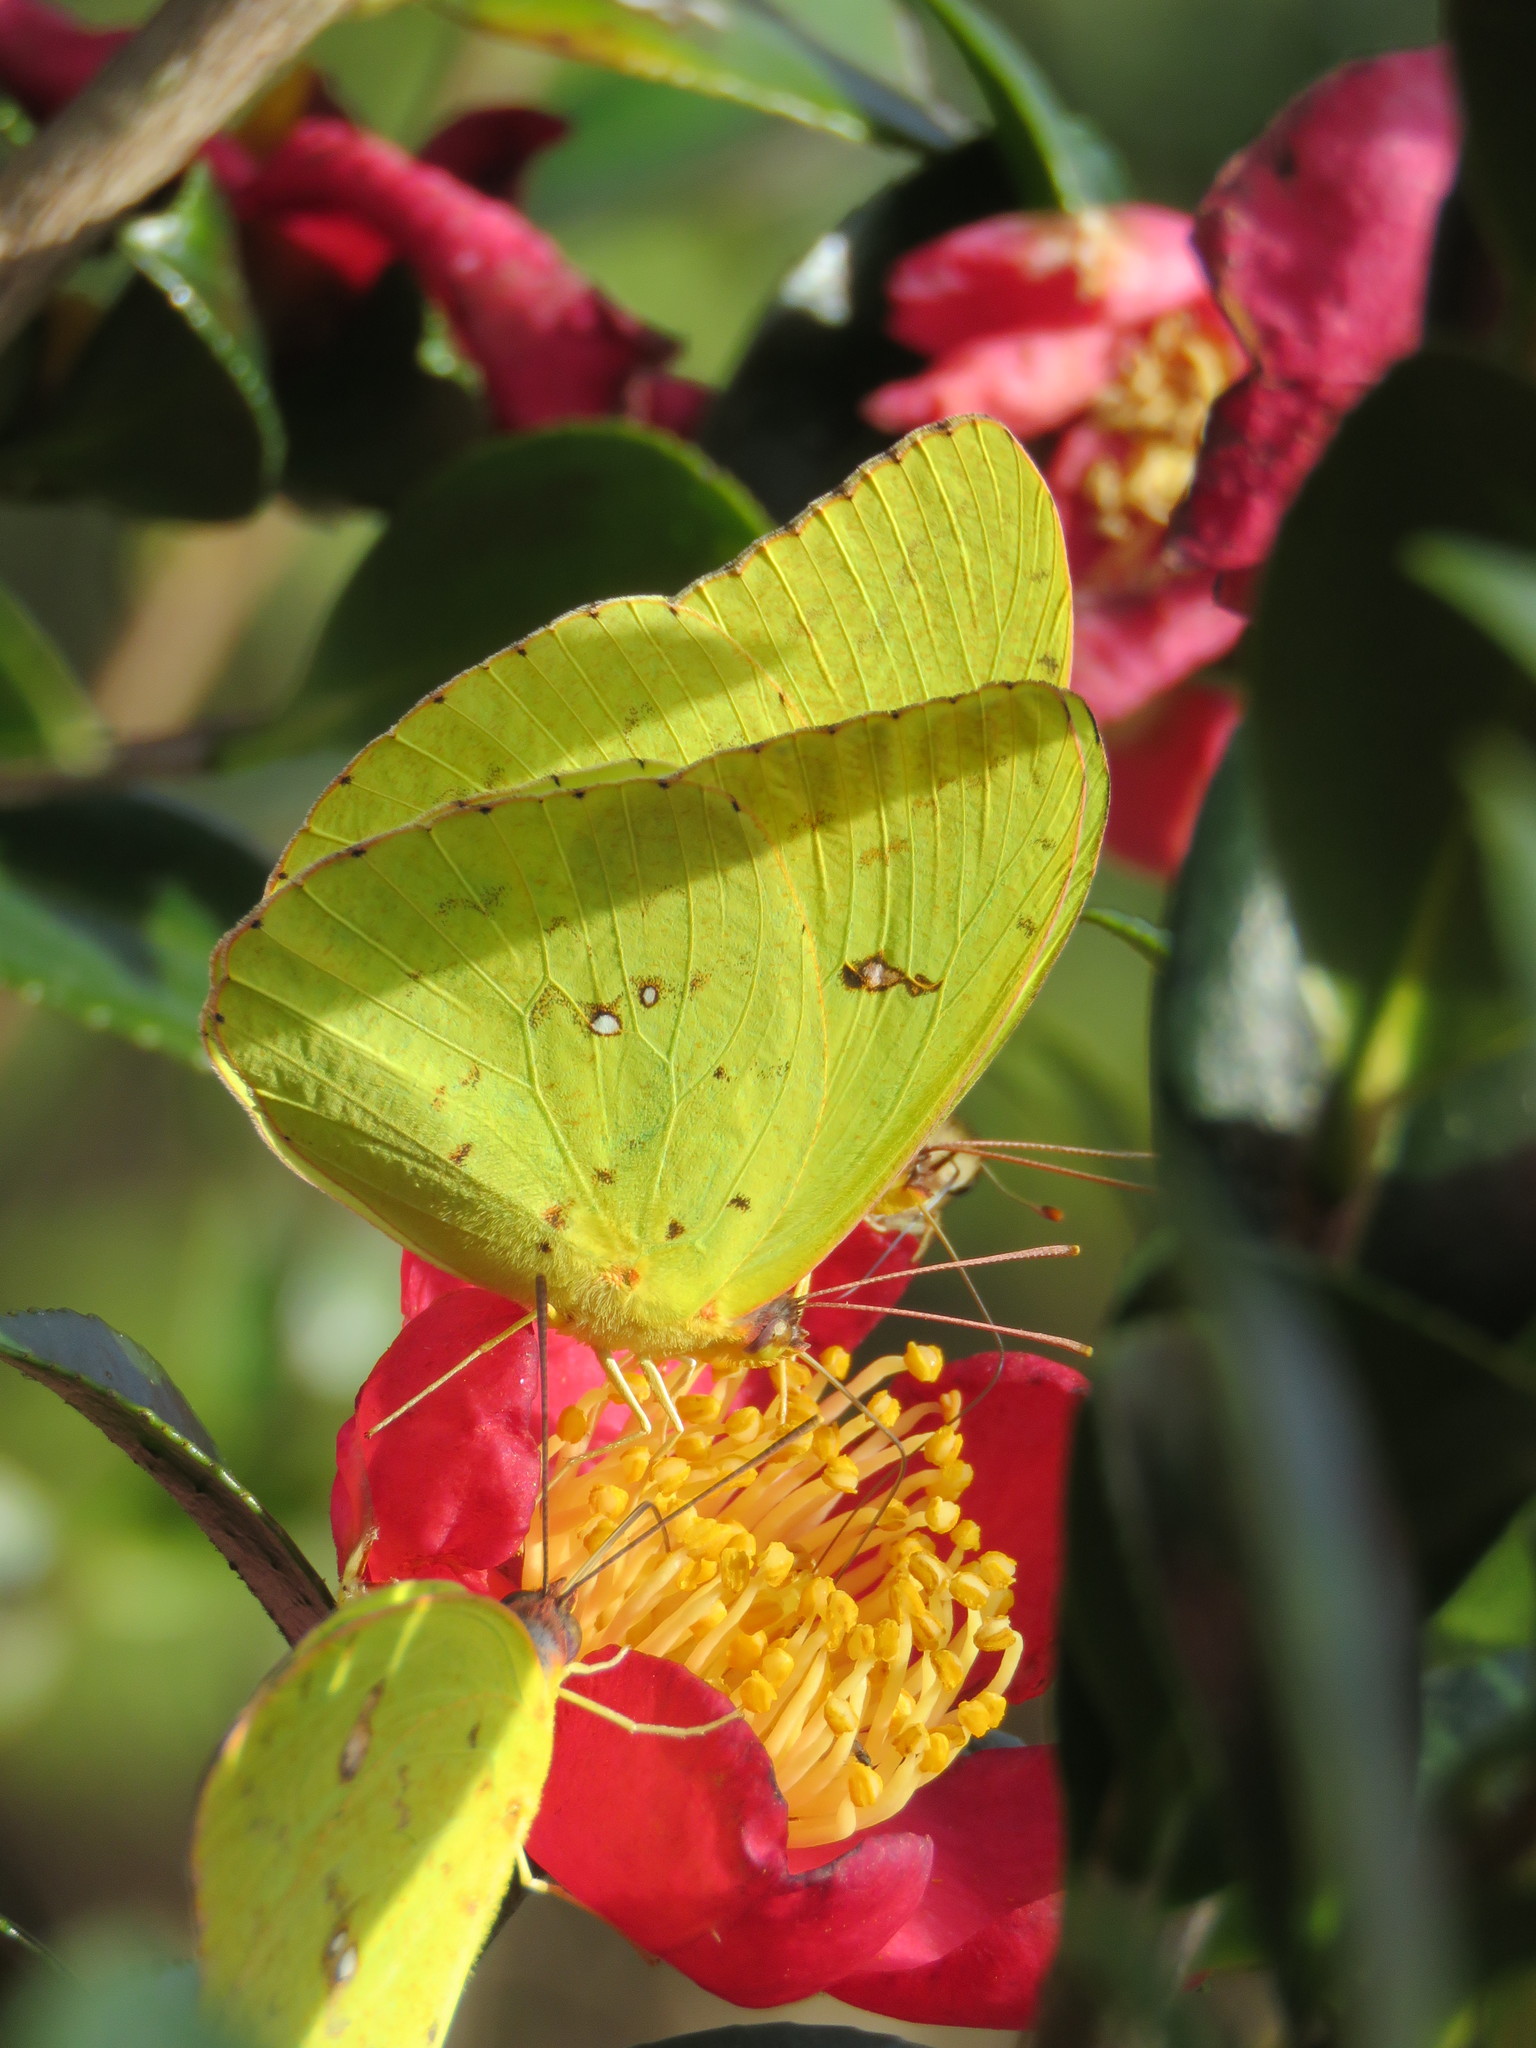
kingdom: Animalia
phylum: Arthropoda
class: Insecta
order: Lepidoptera
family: Pieridae
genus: Phoebis
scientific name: Phoebis sennae
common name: Cloudless sulphur
